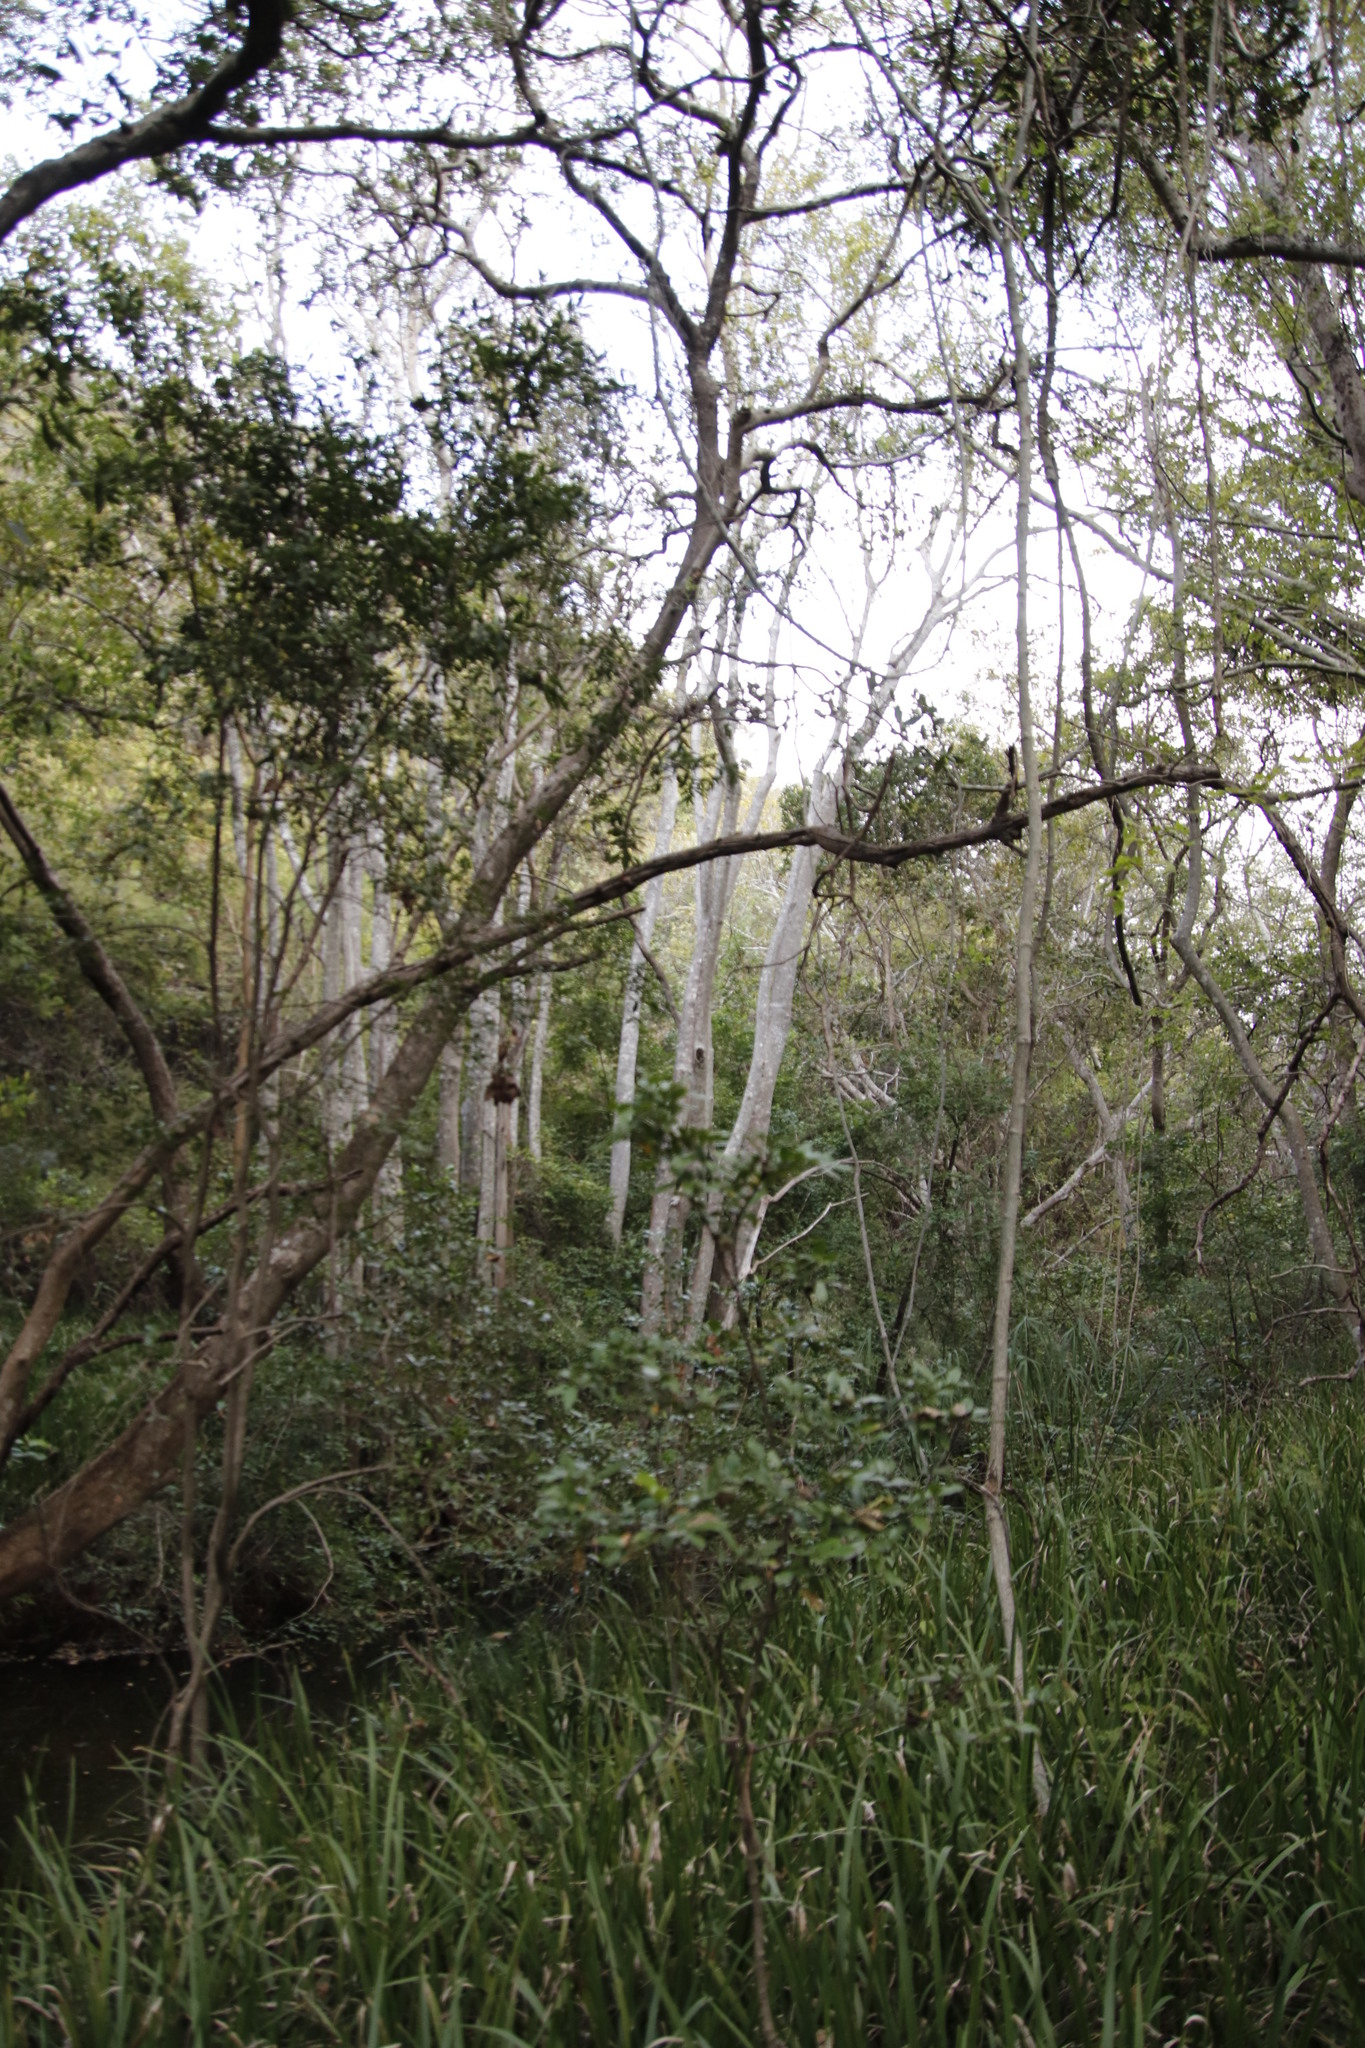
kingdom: Plantae
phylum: Tracheophyta
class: Magnoliopsida
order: Rosales
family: Cannabaceae
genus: Celtis
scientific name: Celtis africana
